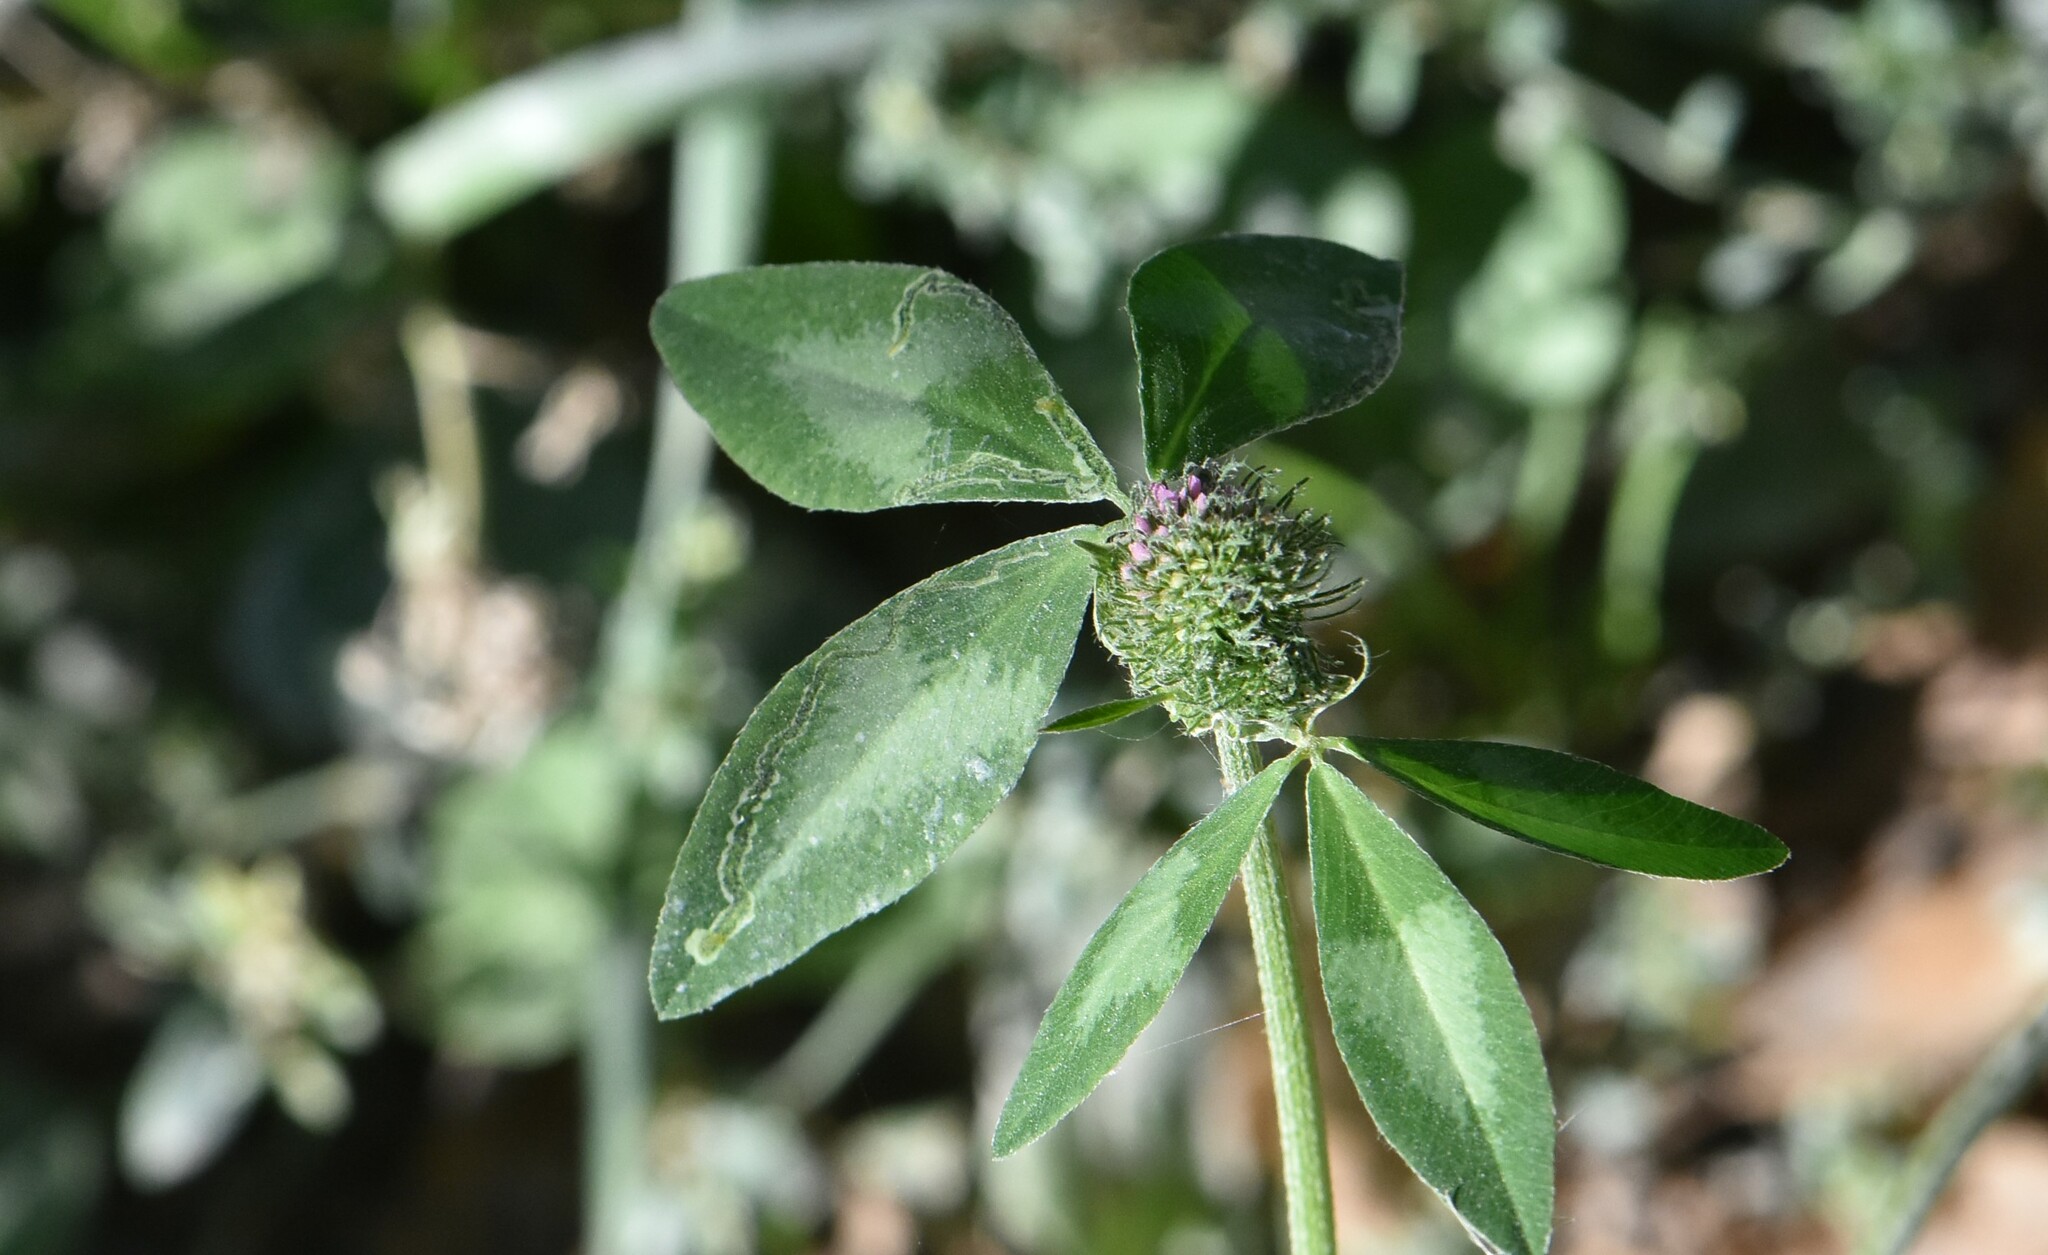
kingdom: Plantae
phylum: Tracheophyta
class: Magnoliopsida
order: Fabales
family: Fabaceae
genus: Trifolium
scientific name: Trifolium pratense
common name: Red clover
